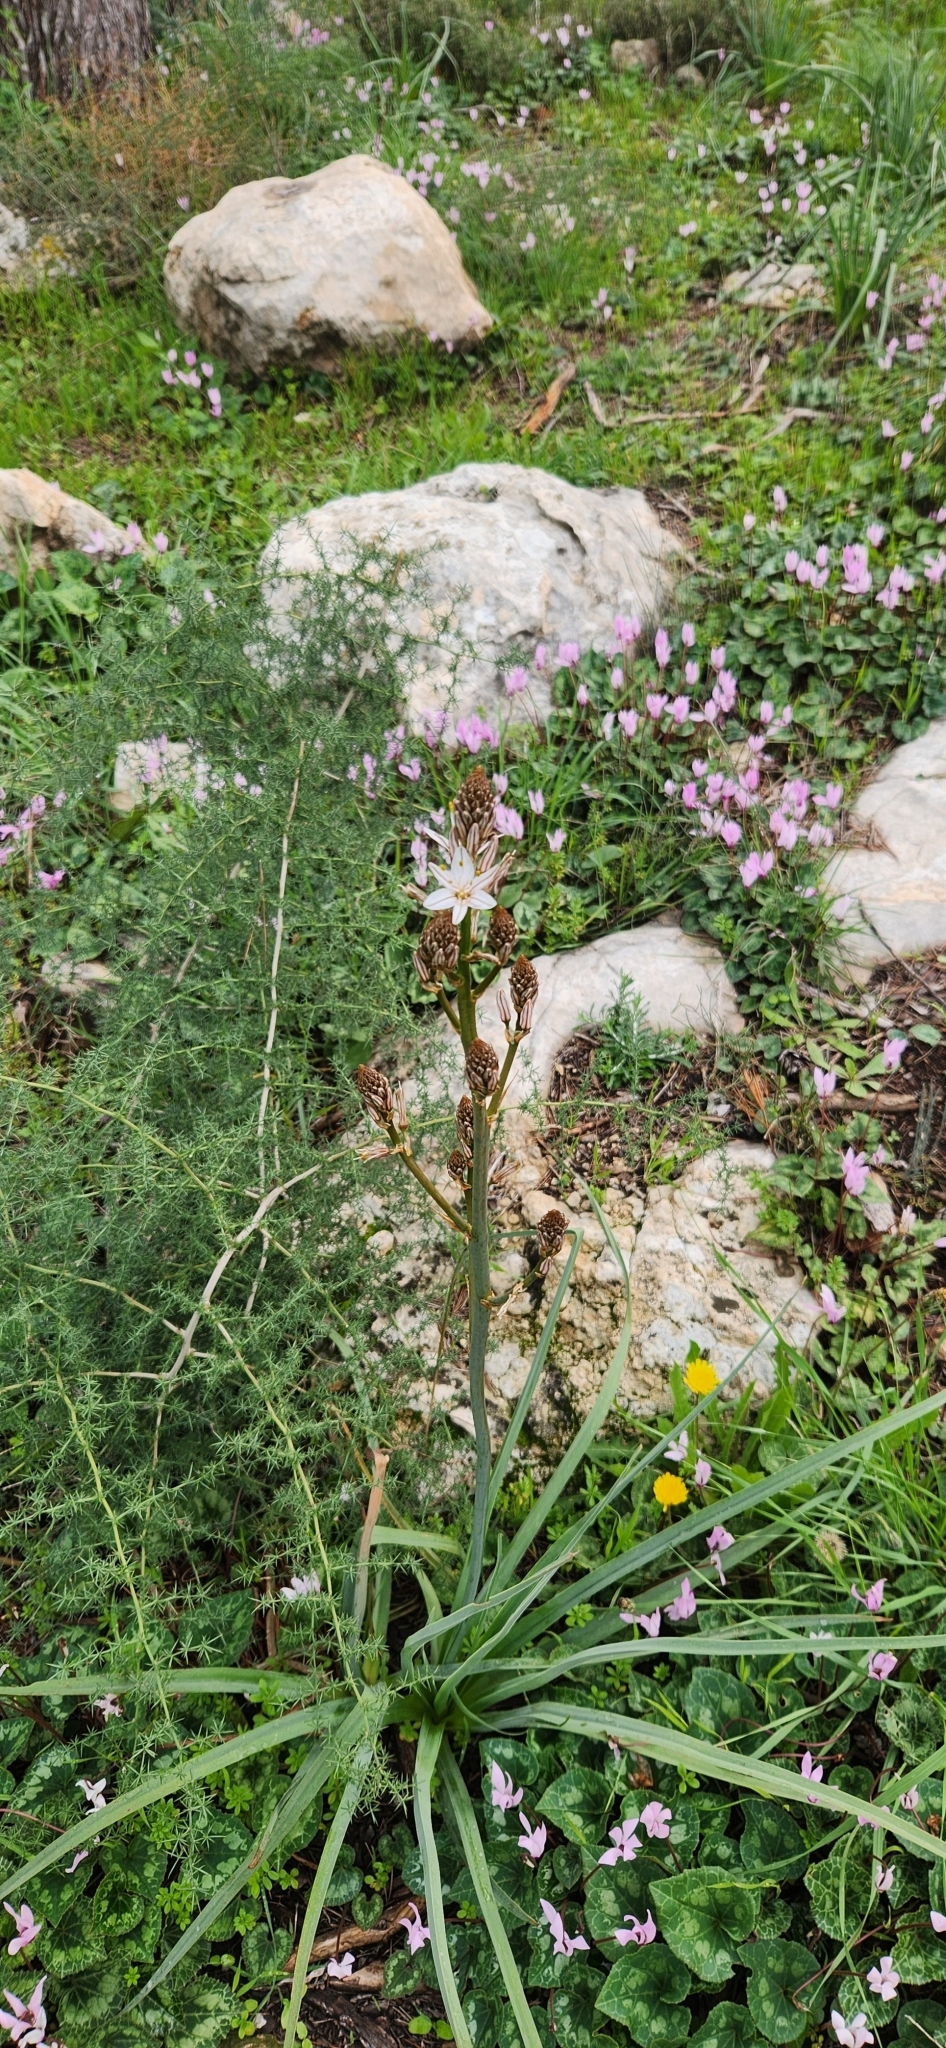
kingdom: Plantae
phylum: Tracheophyta
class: Liliopsida
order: Asparagales
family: Asphodelaceae
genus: Asphodelus
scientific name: Asphodelus ramosus
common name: Silverrod
